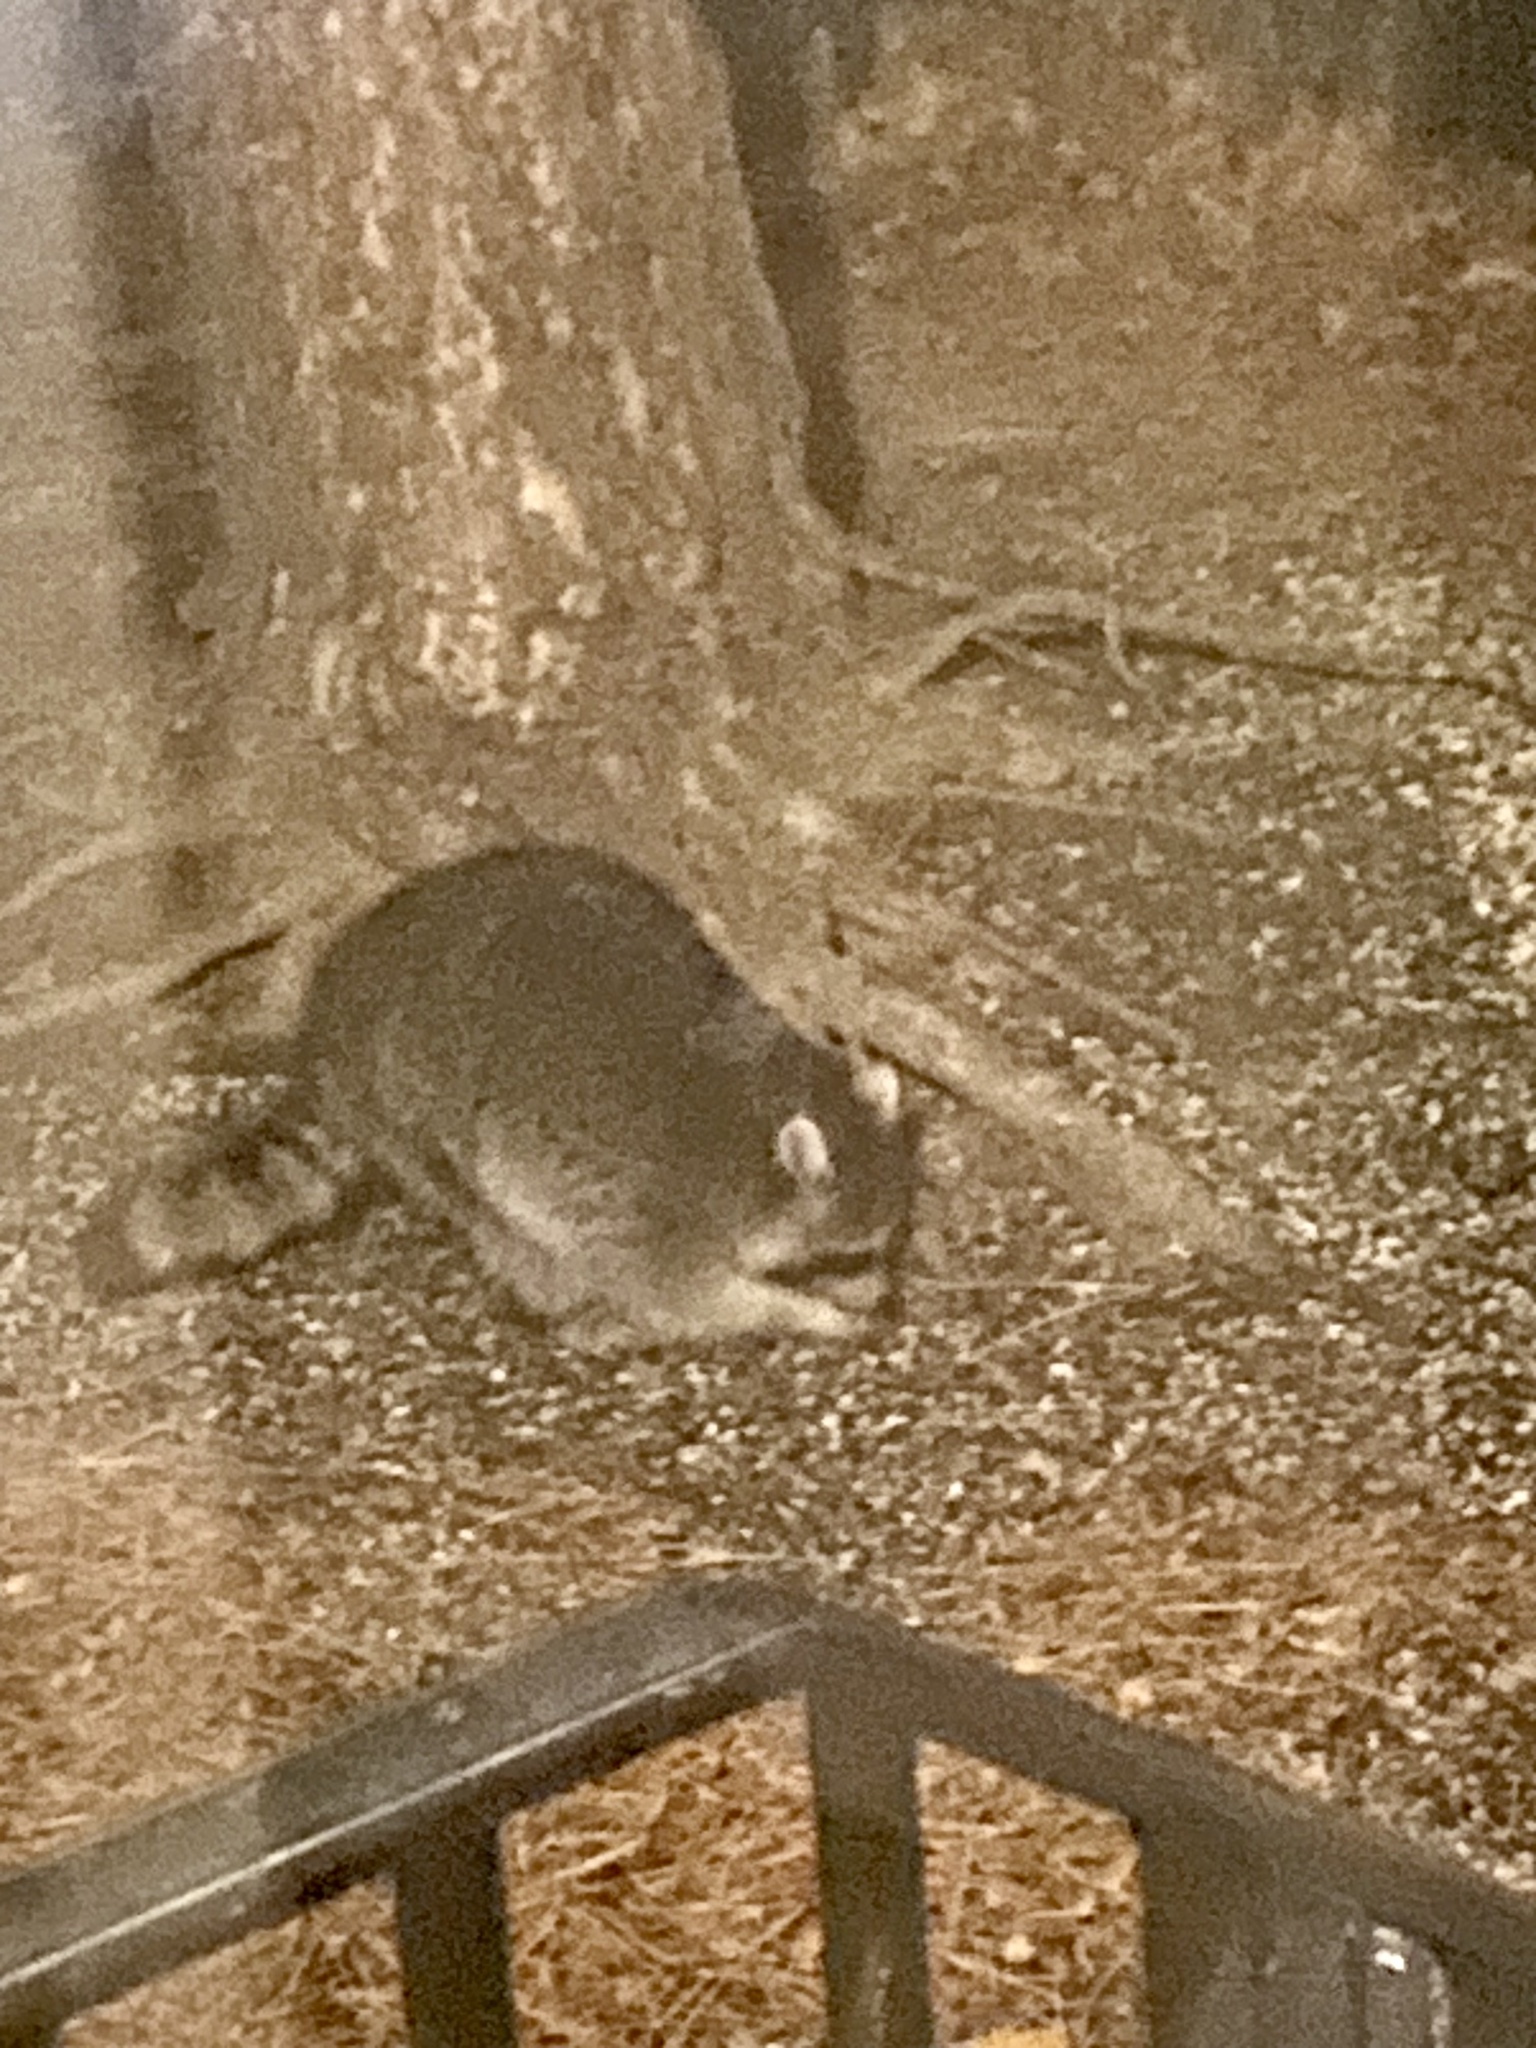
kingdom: Animalia
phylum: Chordata
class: Mammalia
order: Carnivora
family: Procyonidae
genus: Procyon
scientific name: Procyon lotor
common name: Raccoon
